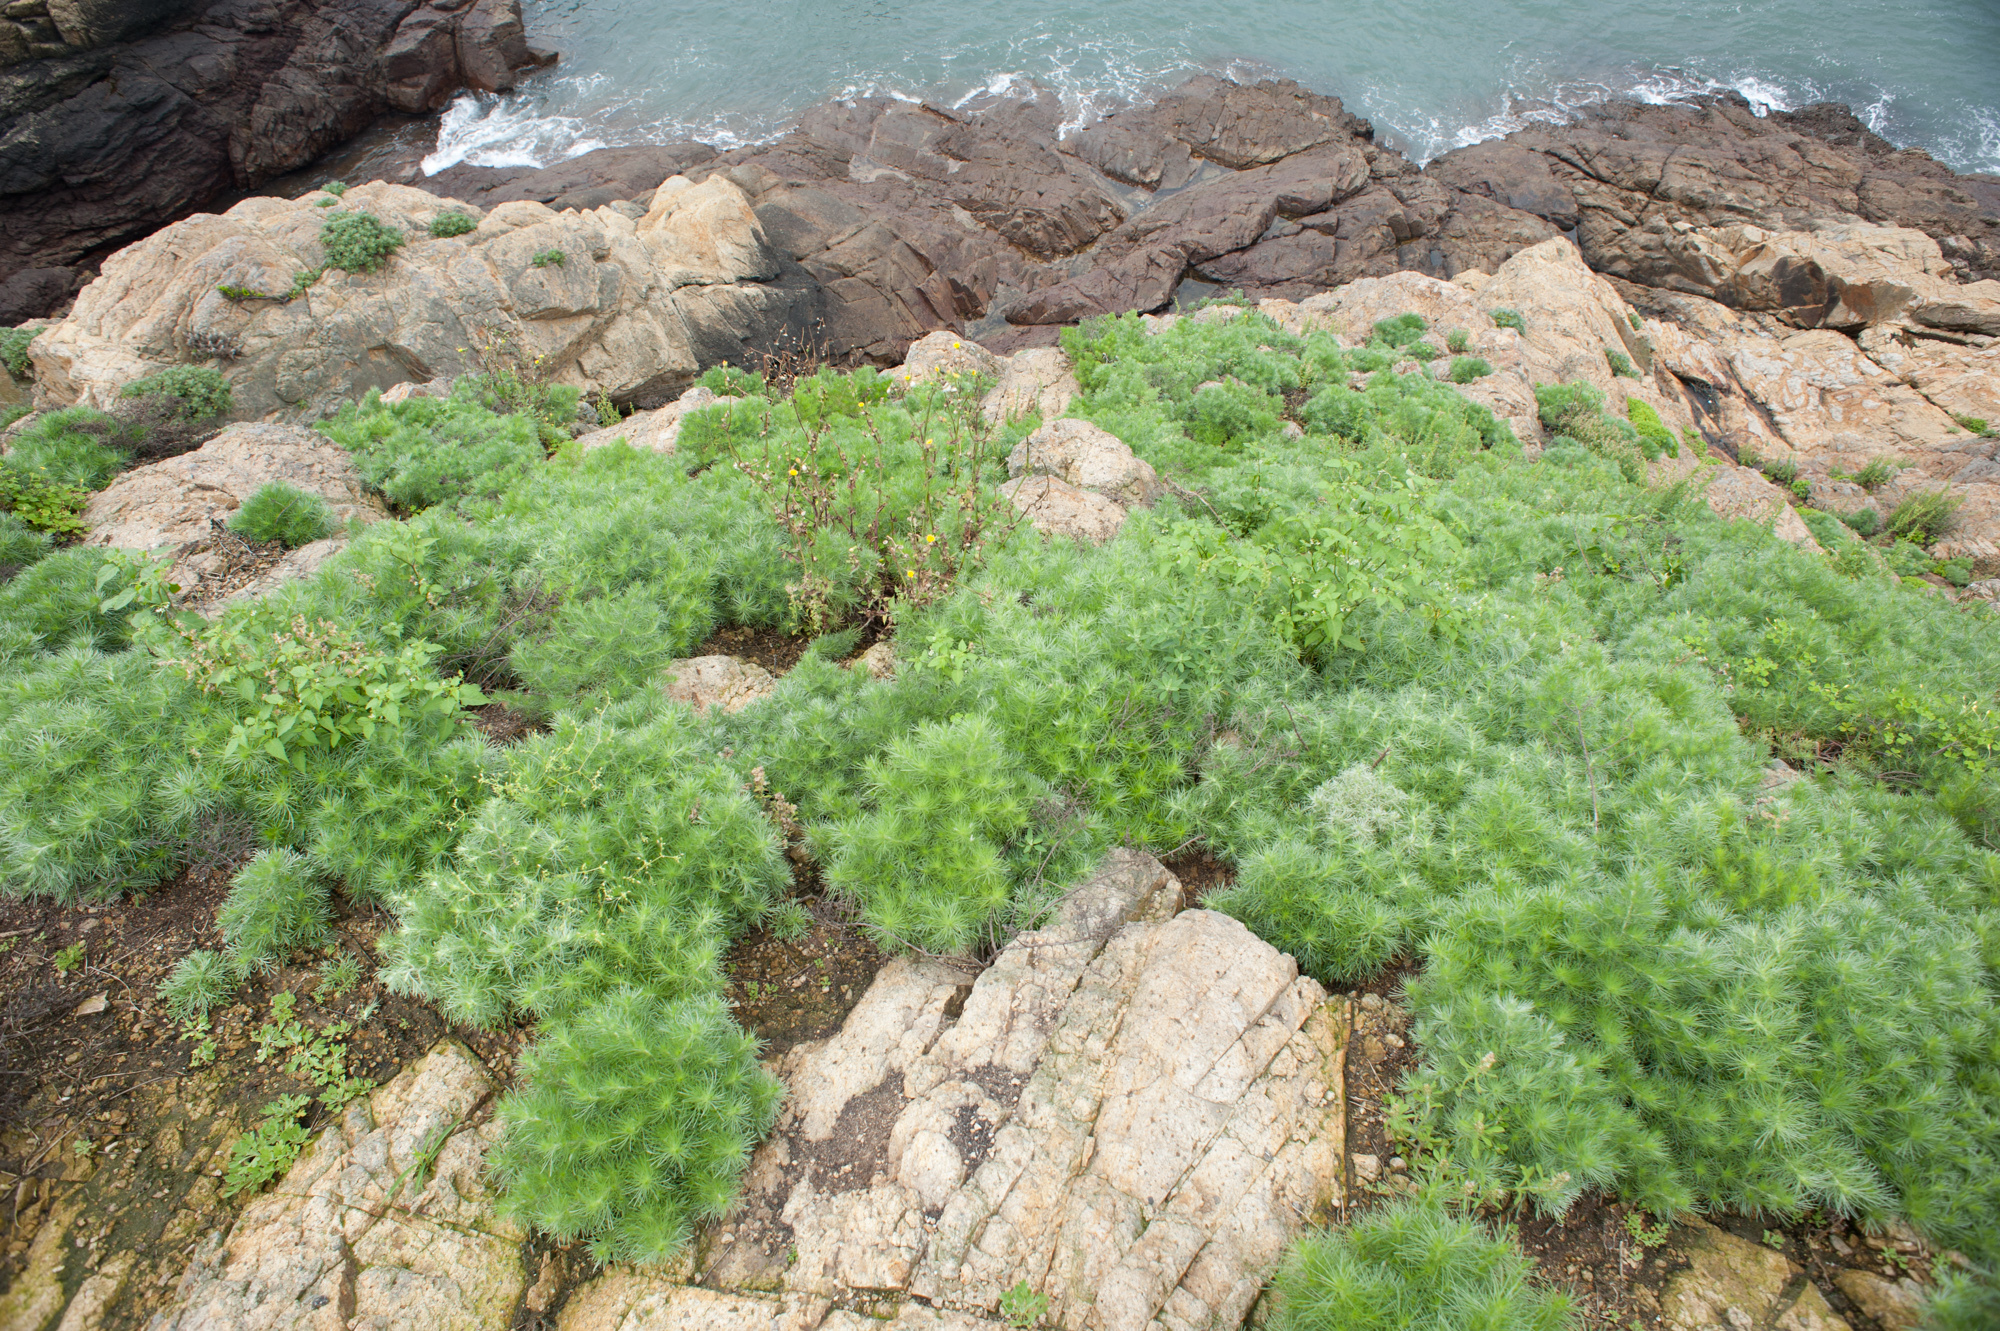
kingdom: Plantae
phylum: Tracheophyta
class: Magnoliopsida
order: Asterales
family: Asteraceae
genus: Artemisia
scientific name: Artemisia capillaris
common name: Yin-chen wormwood
